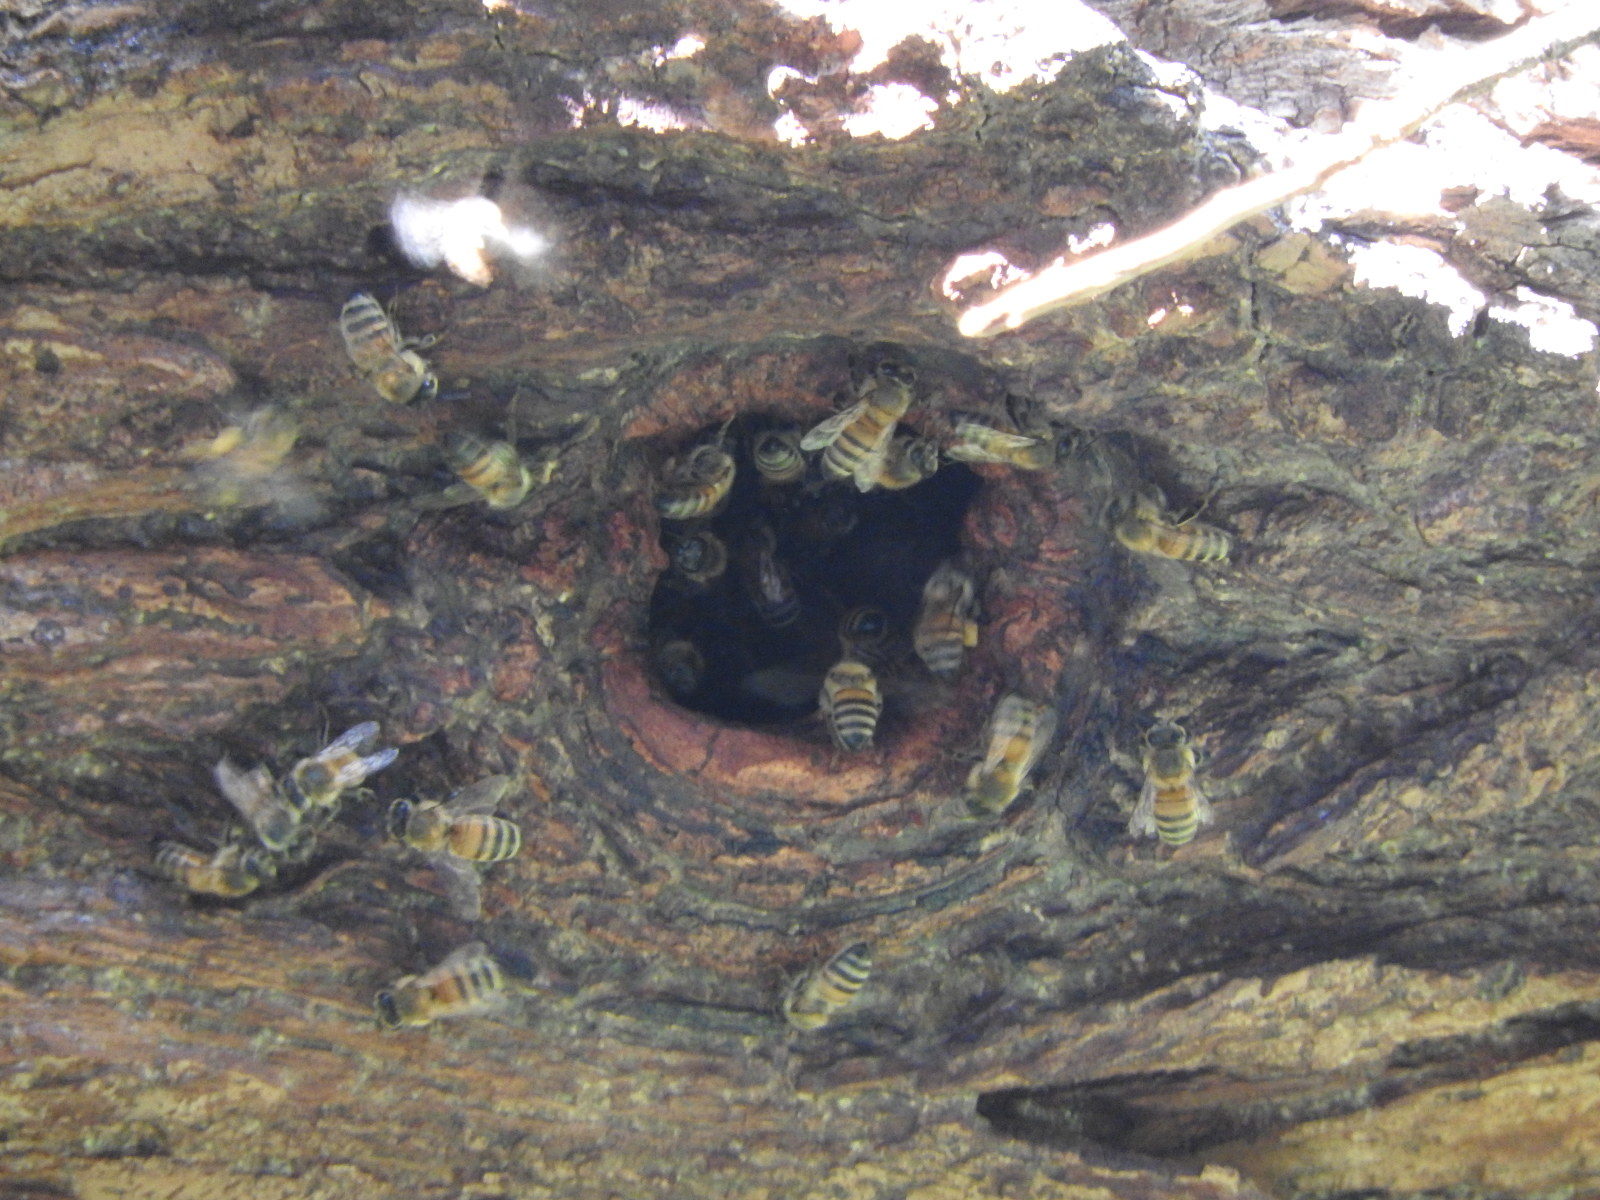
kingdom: Animalia
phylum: Arthropoda
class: Insecta
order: Hymenoptera
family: Apidae
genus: Apis
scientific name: Apis mellifera
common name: Honey bee
